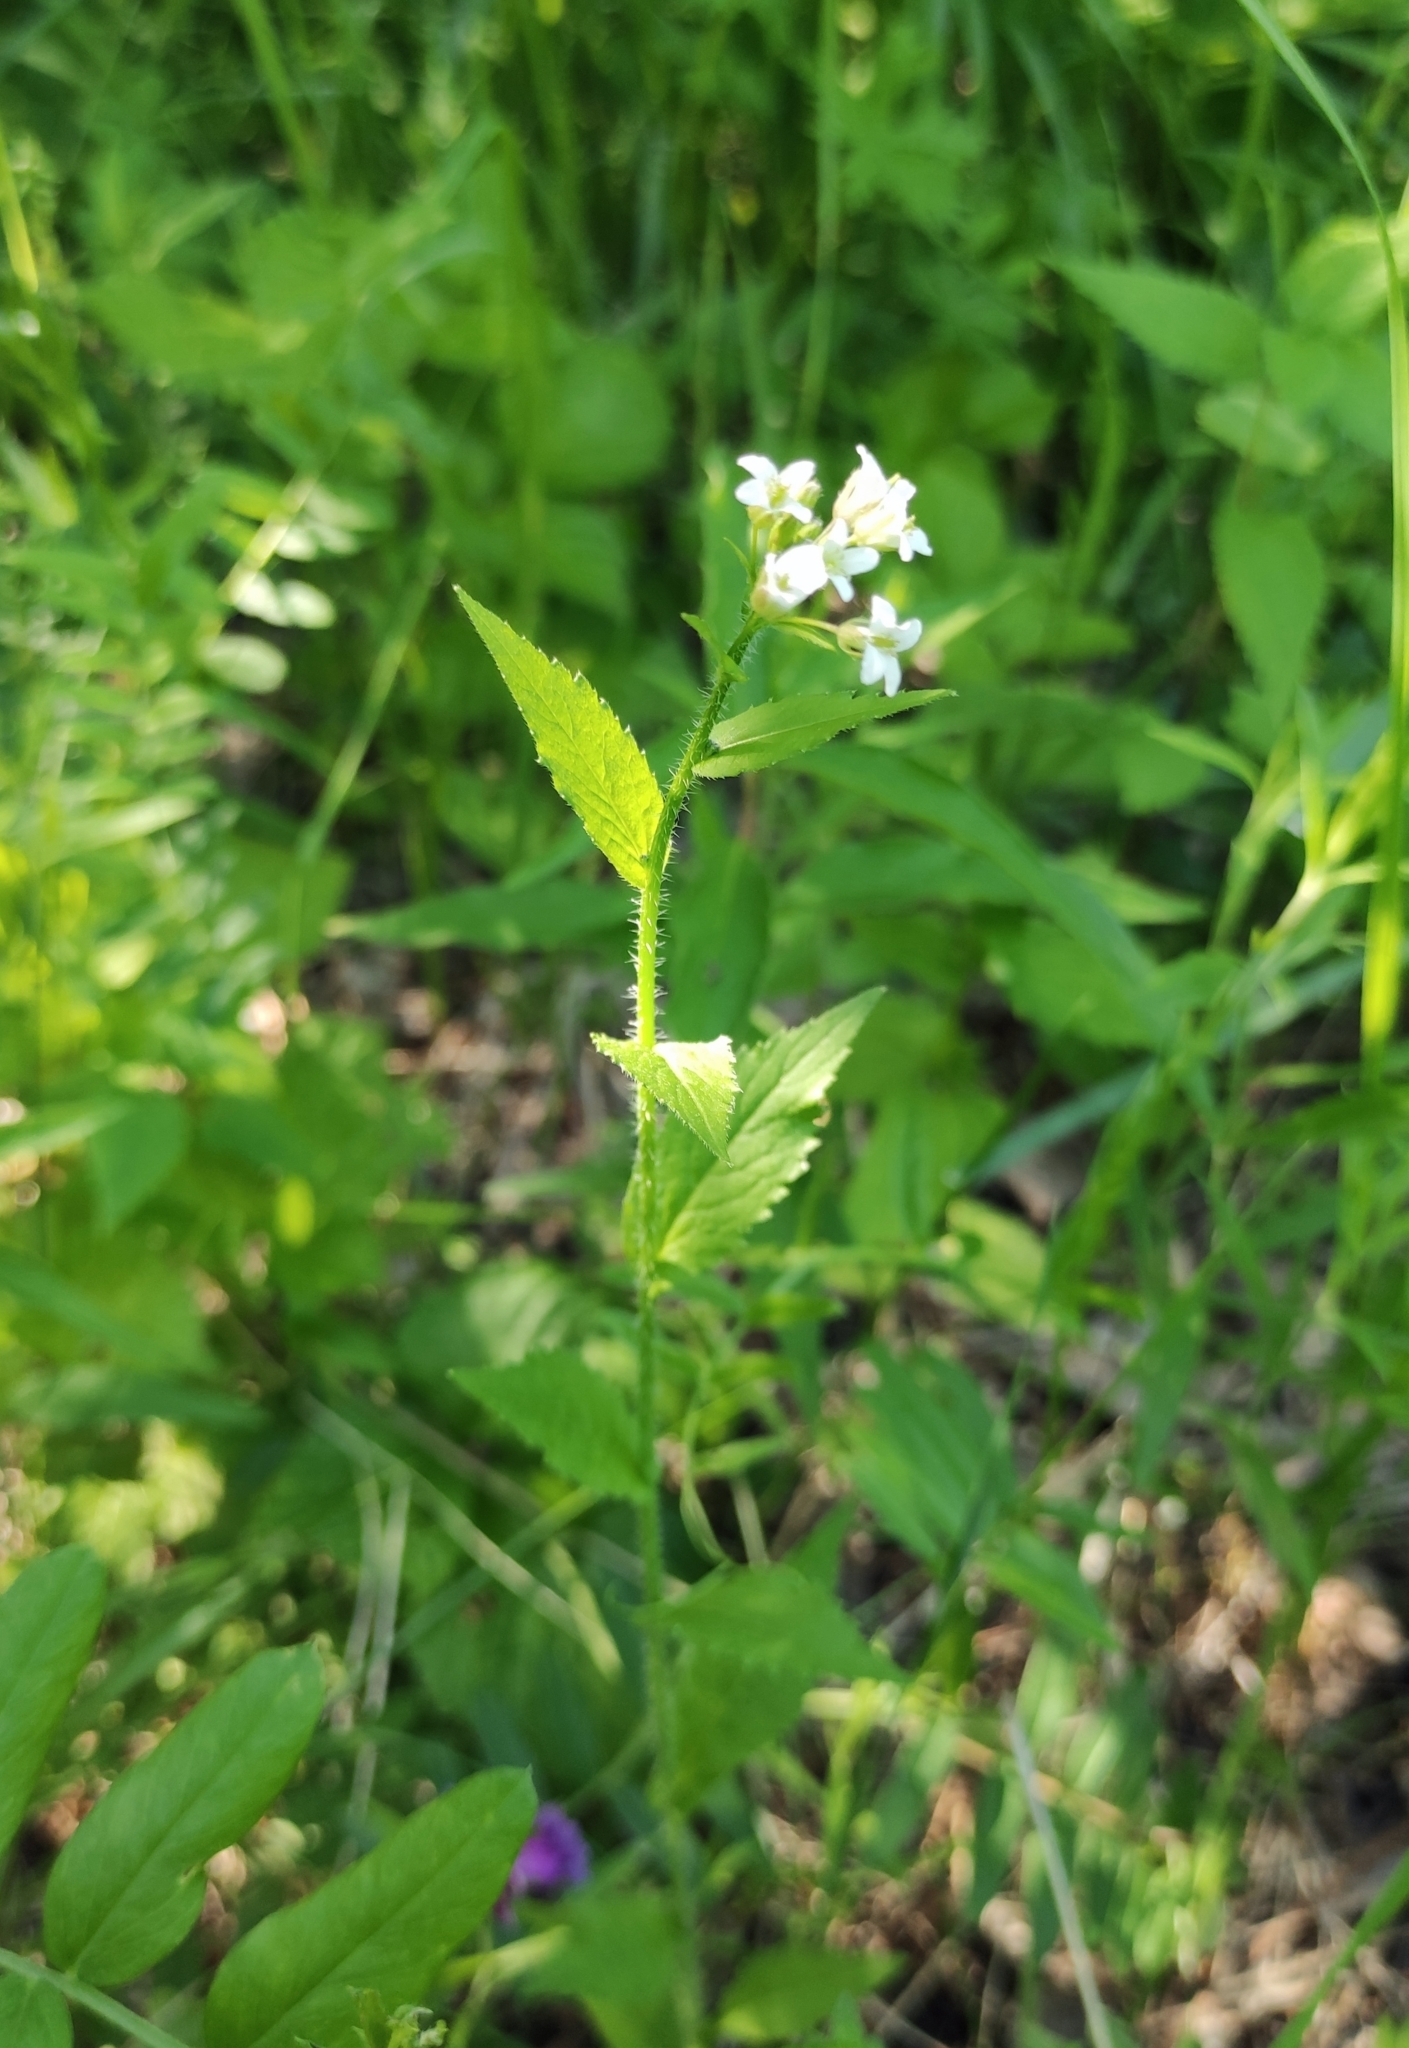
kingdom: Plantae
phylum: Tracheophyta
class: Magnoliopsida
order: Brassicales
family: Brassicaceae
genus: Catolobus
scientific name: Catolobus pendulus
